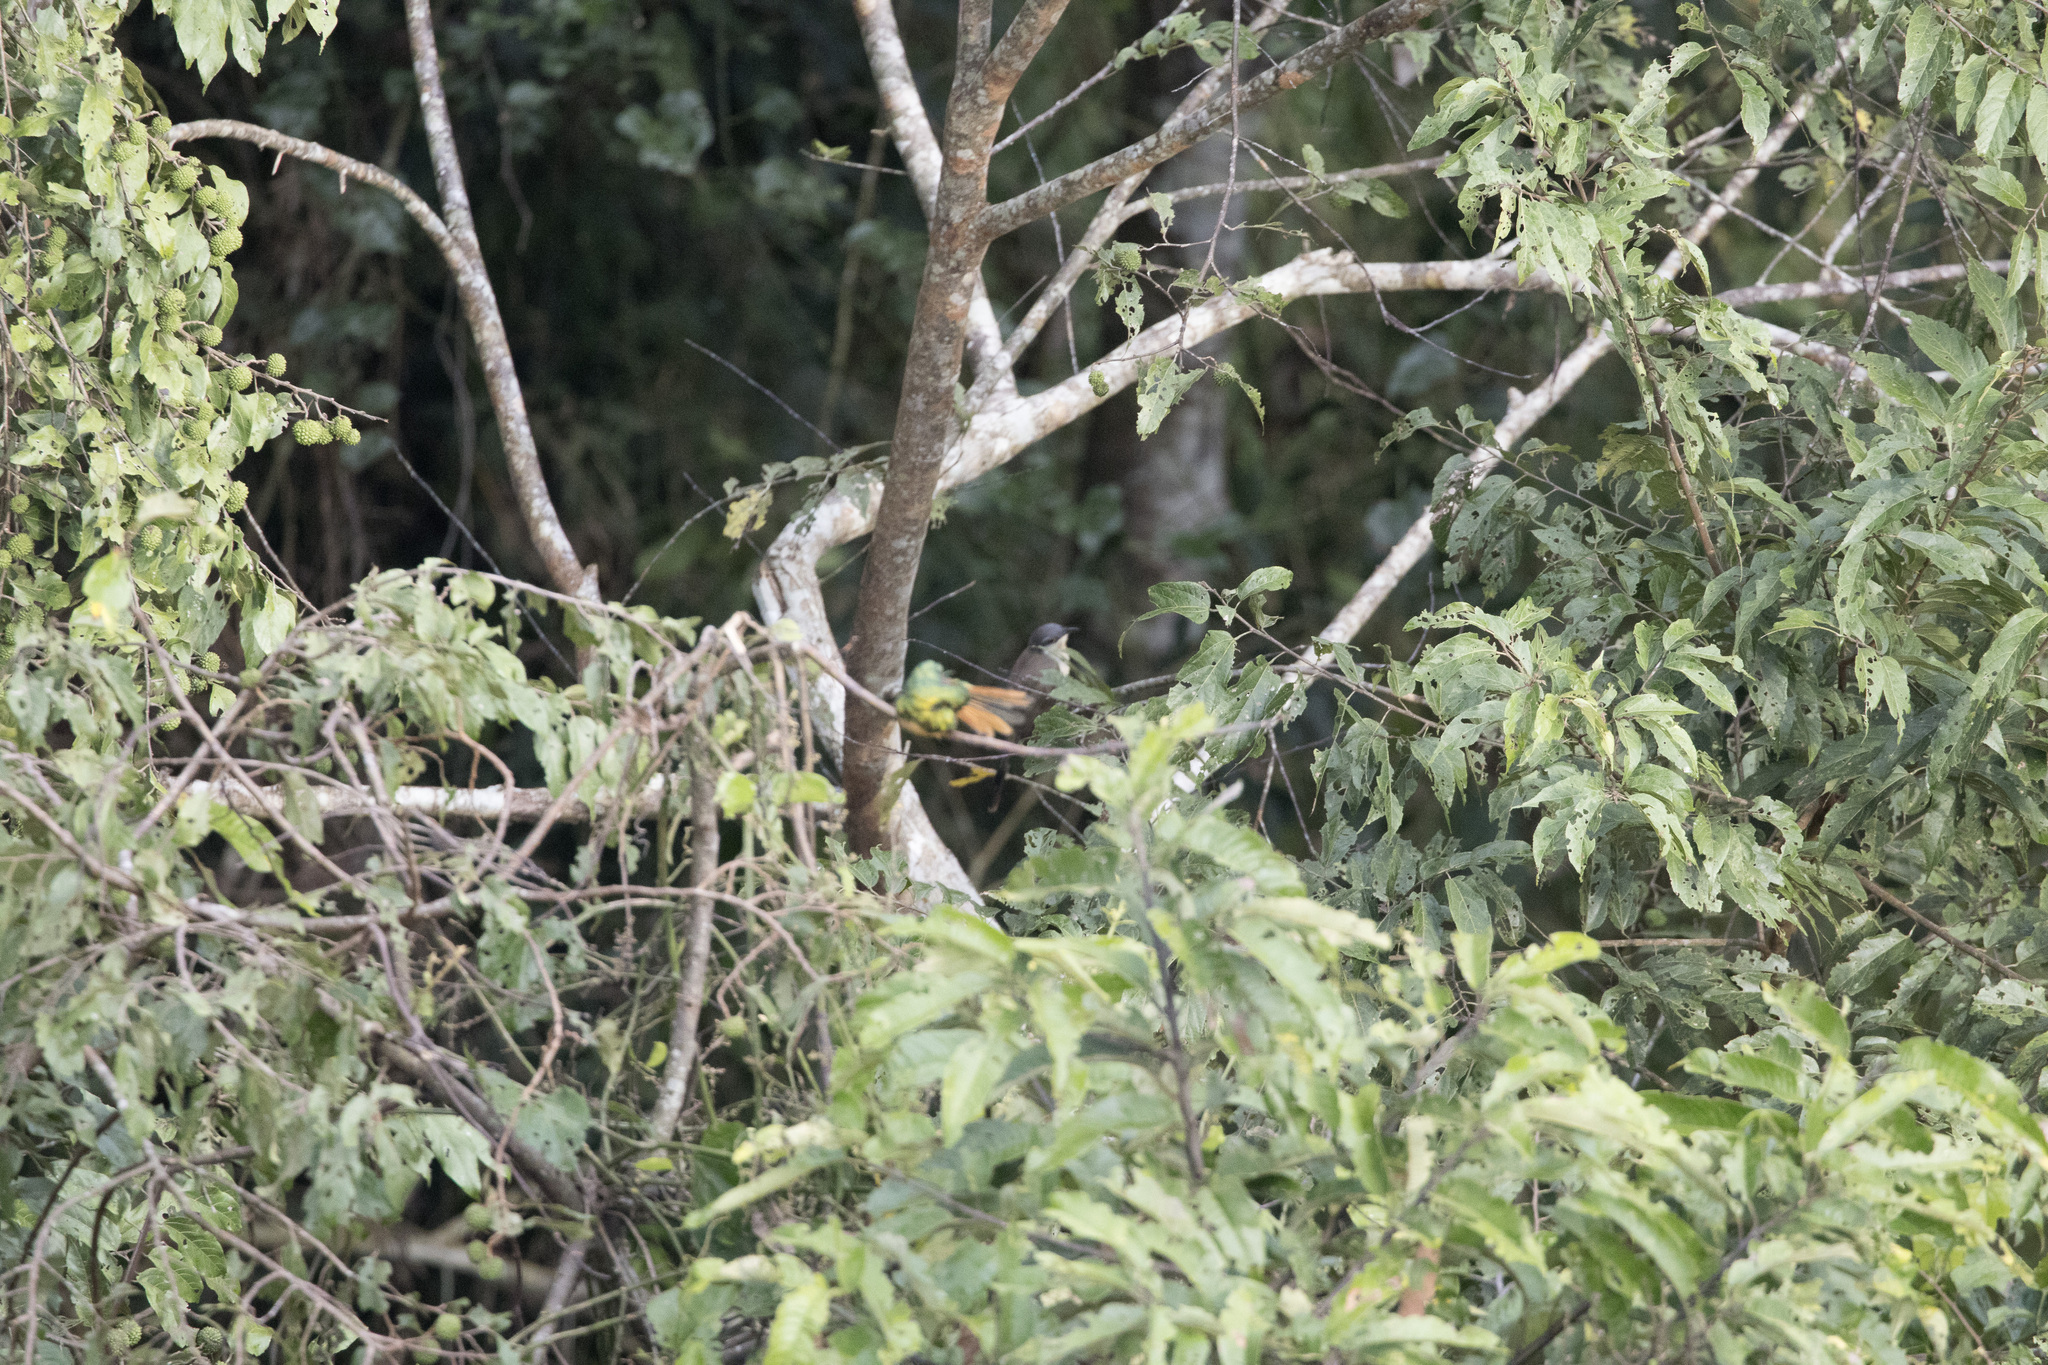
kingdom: Animalia
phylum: Chordata
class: Aves
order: Cuculiformes
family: Cuculidae
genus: Coccyzus
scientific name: Coccyzus melacoryphus
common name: Dark-billed cuckoo
